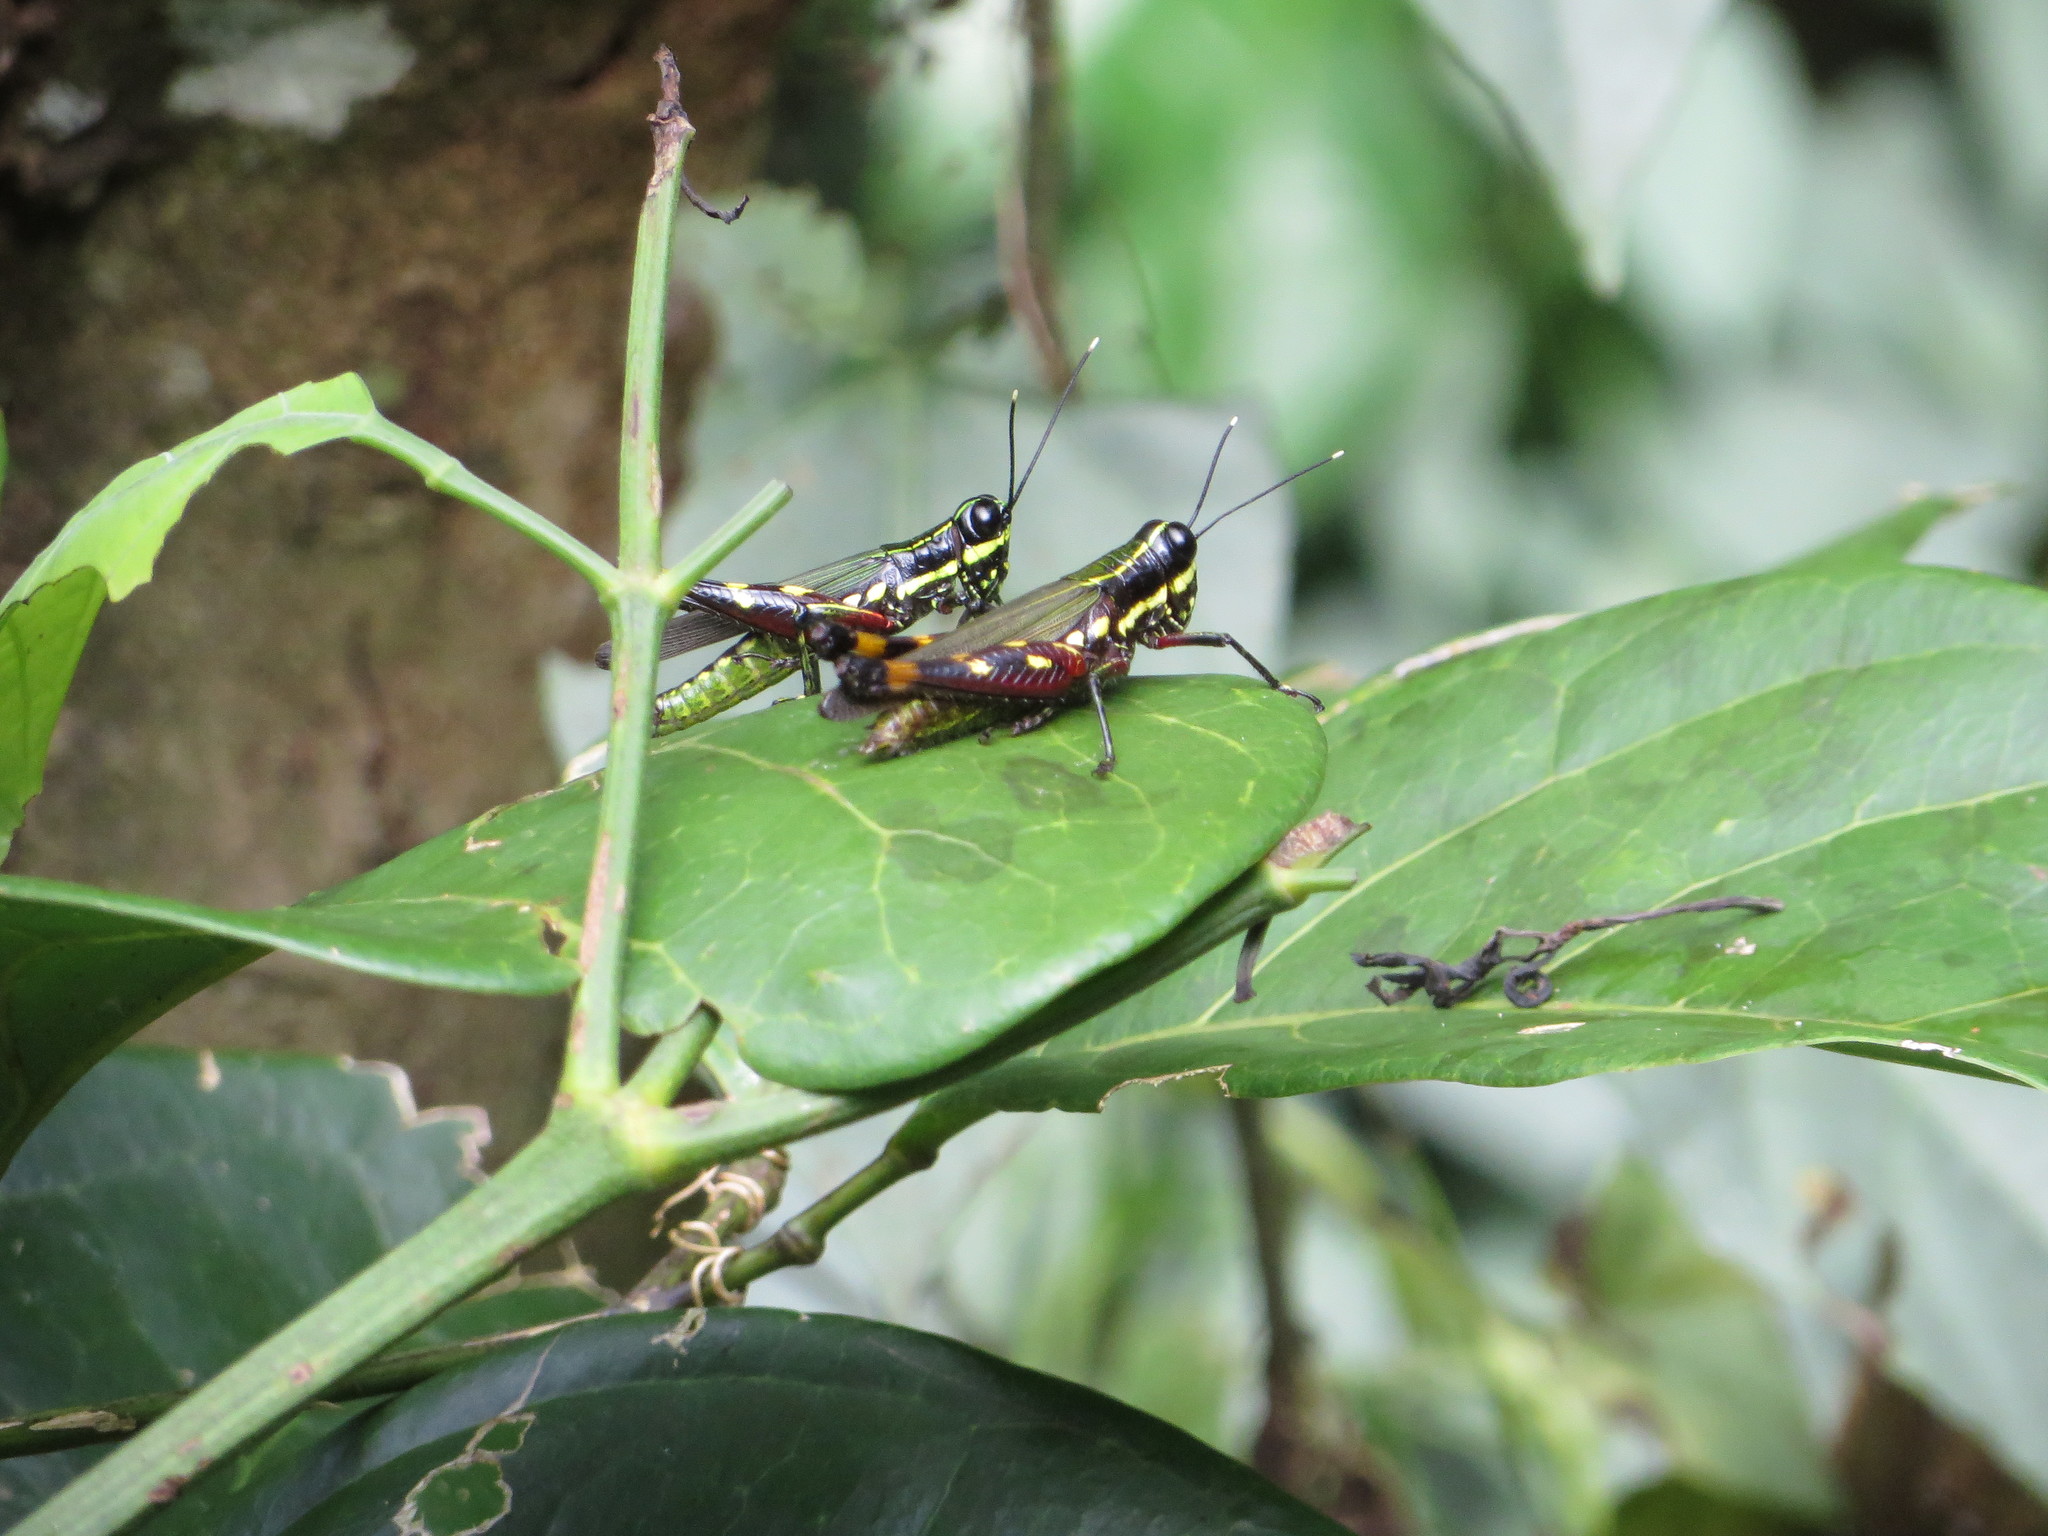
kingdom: Animalia
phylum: Arthropoda
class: Insecta
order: Orthoptera
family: Acrididae
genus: Tetrataenia
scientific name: Tetrataenia surinama
